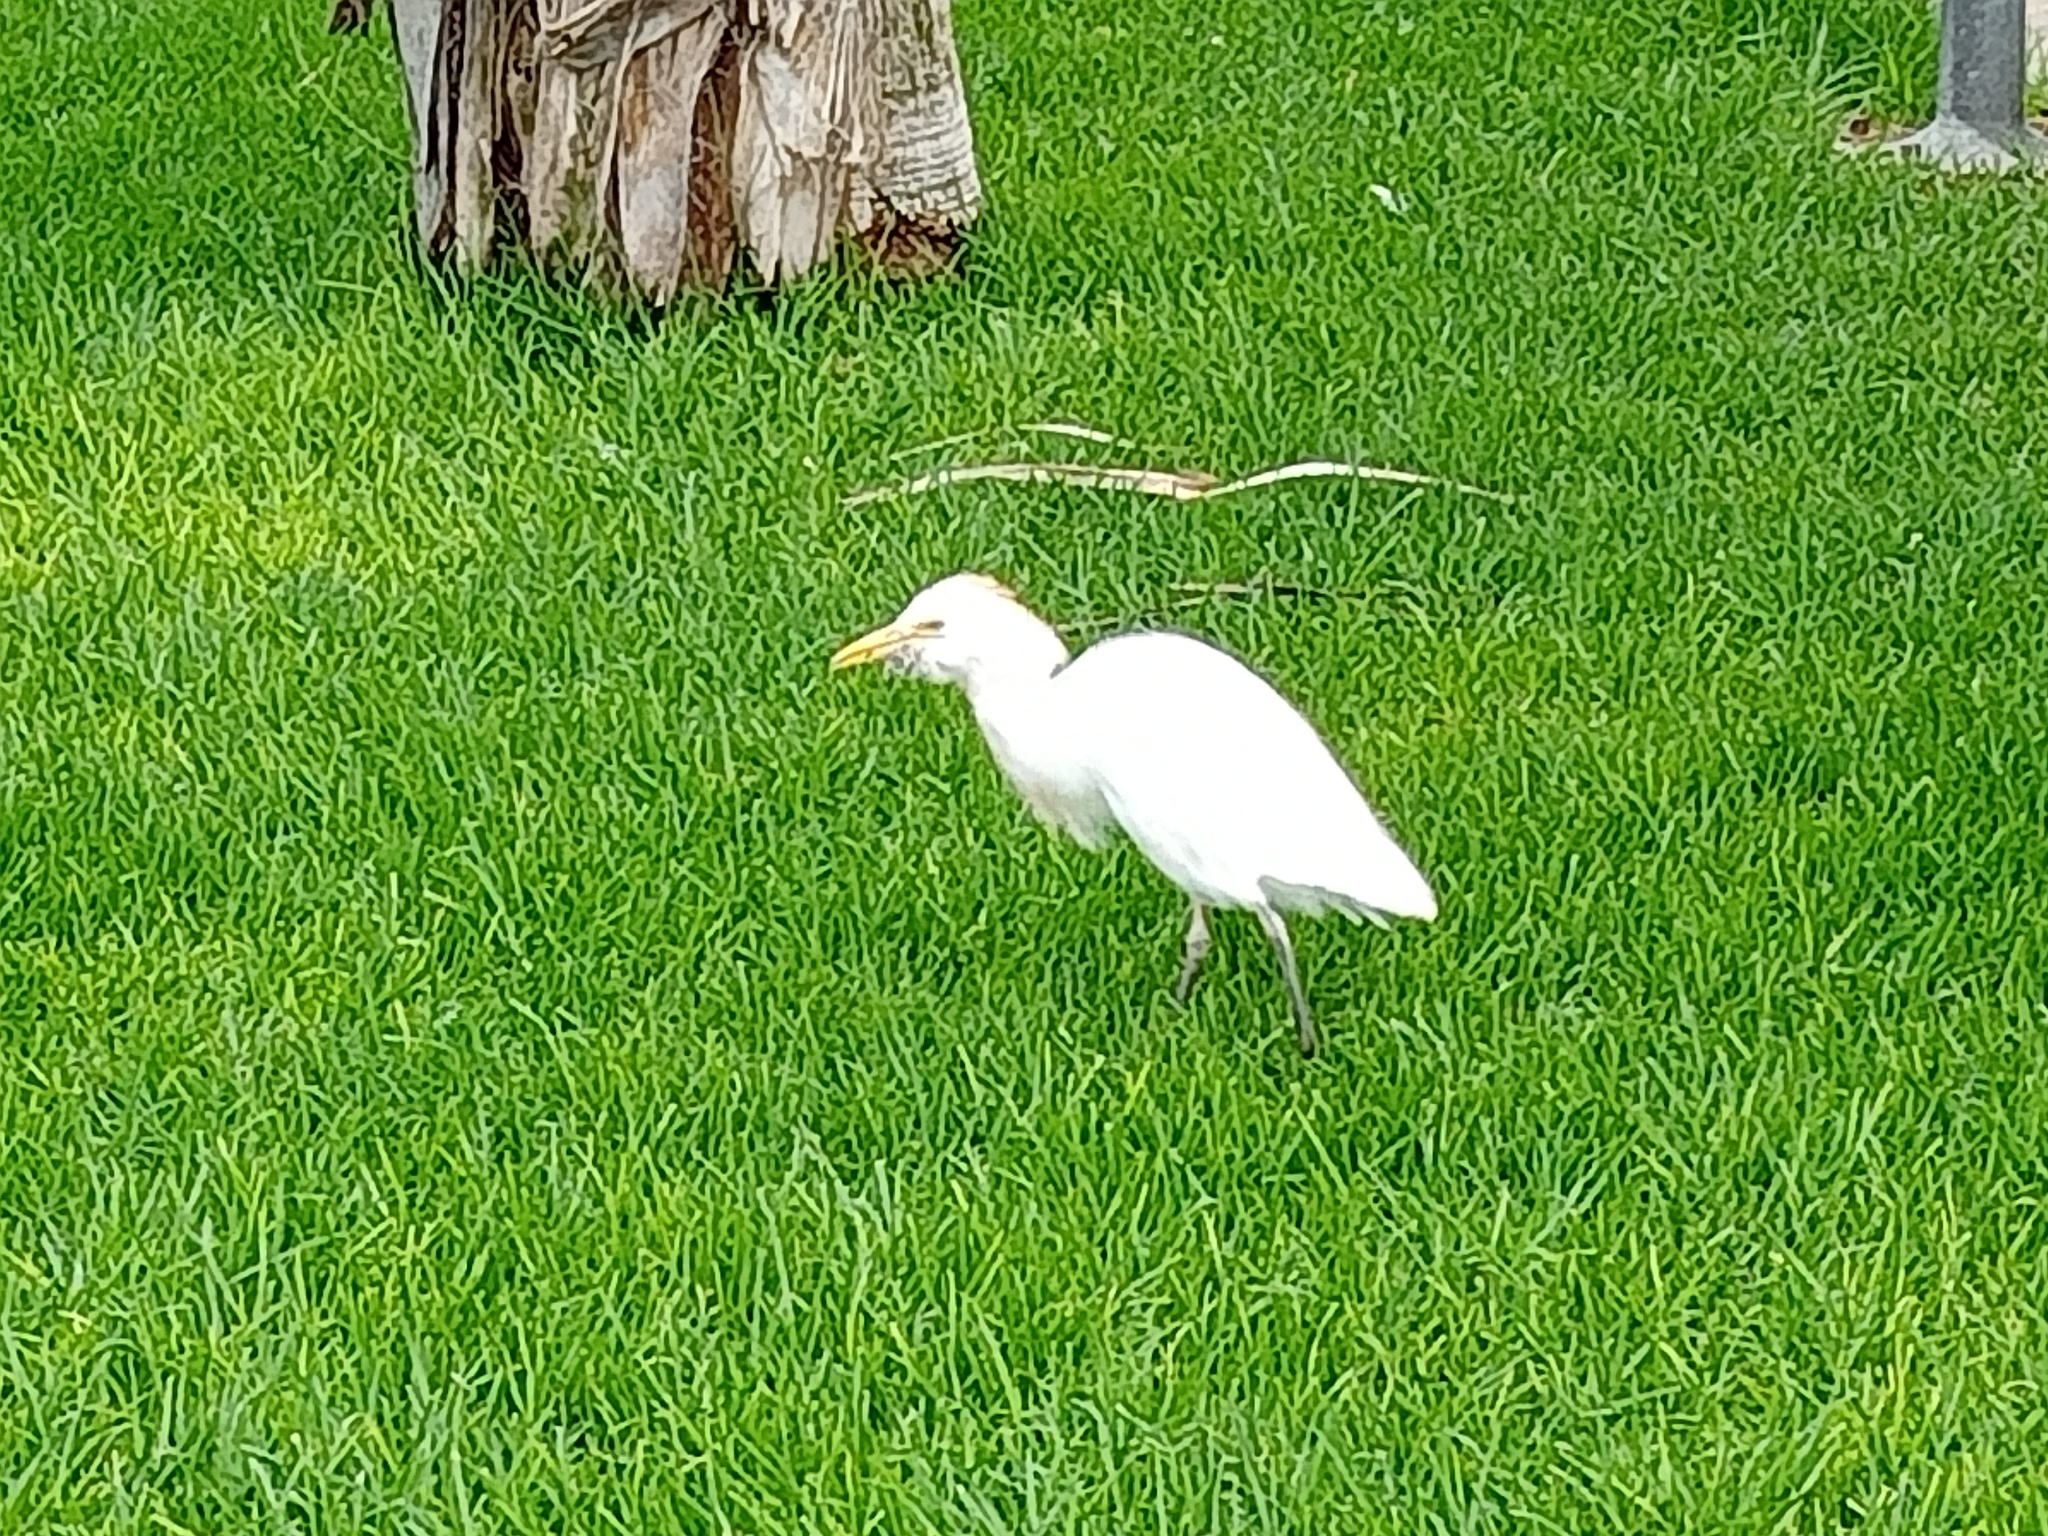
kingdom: Animalia
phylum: Chordata
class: Aves
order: Pelecaniformes
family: Ardeidae
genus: Bubulcus
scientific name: Bubulcus ibis
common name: Cattle egret
